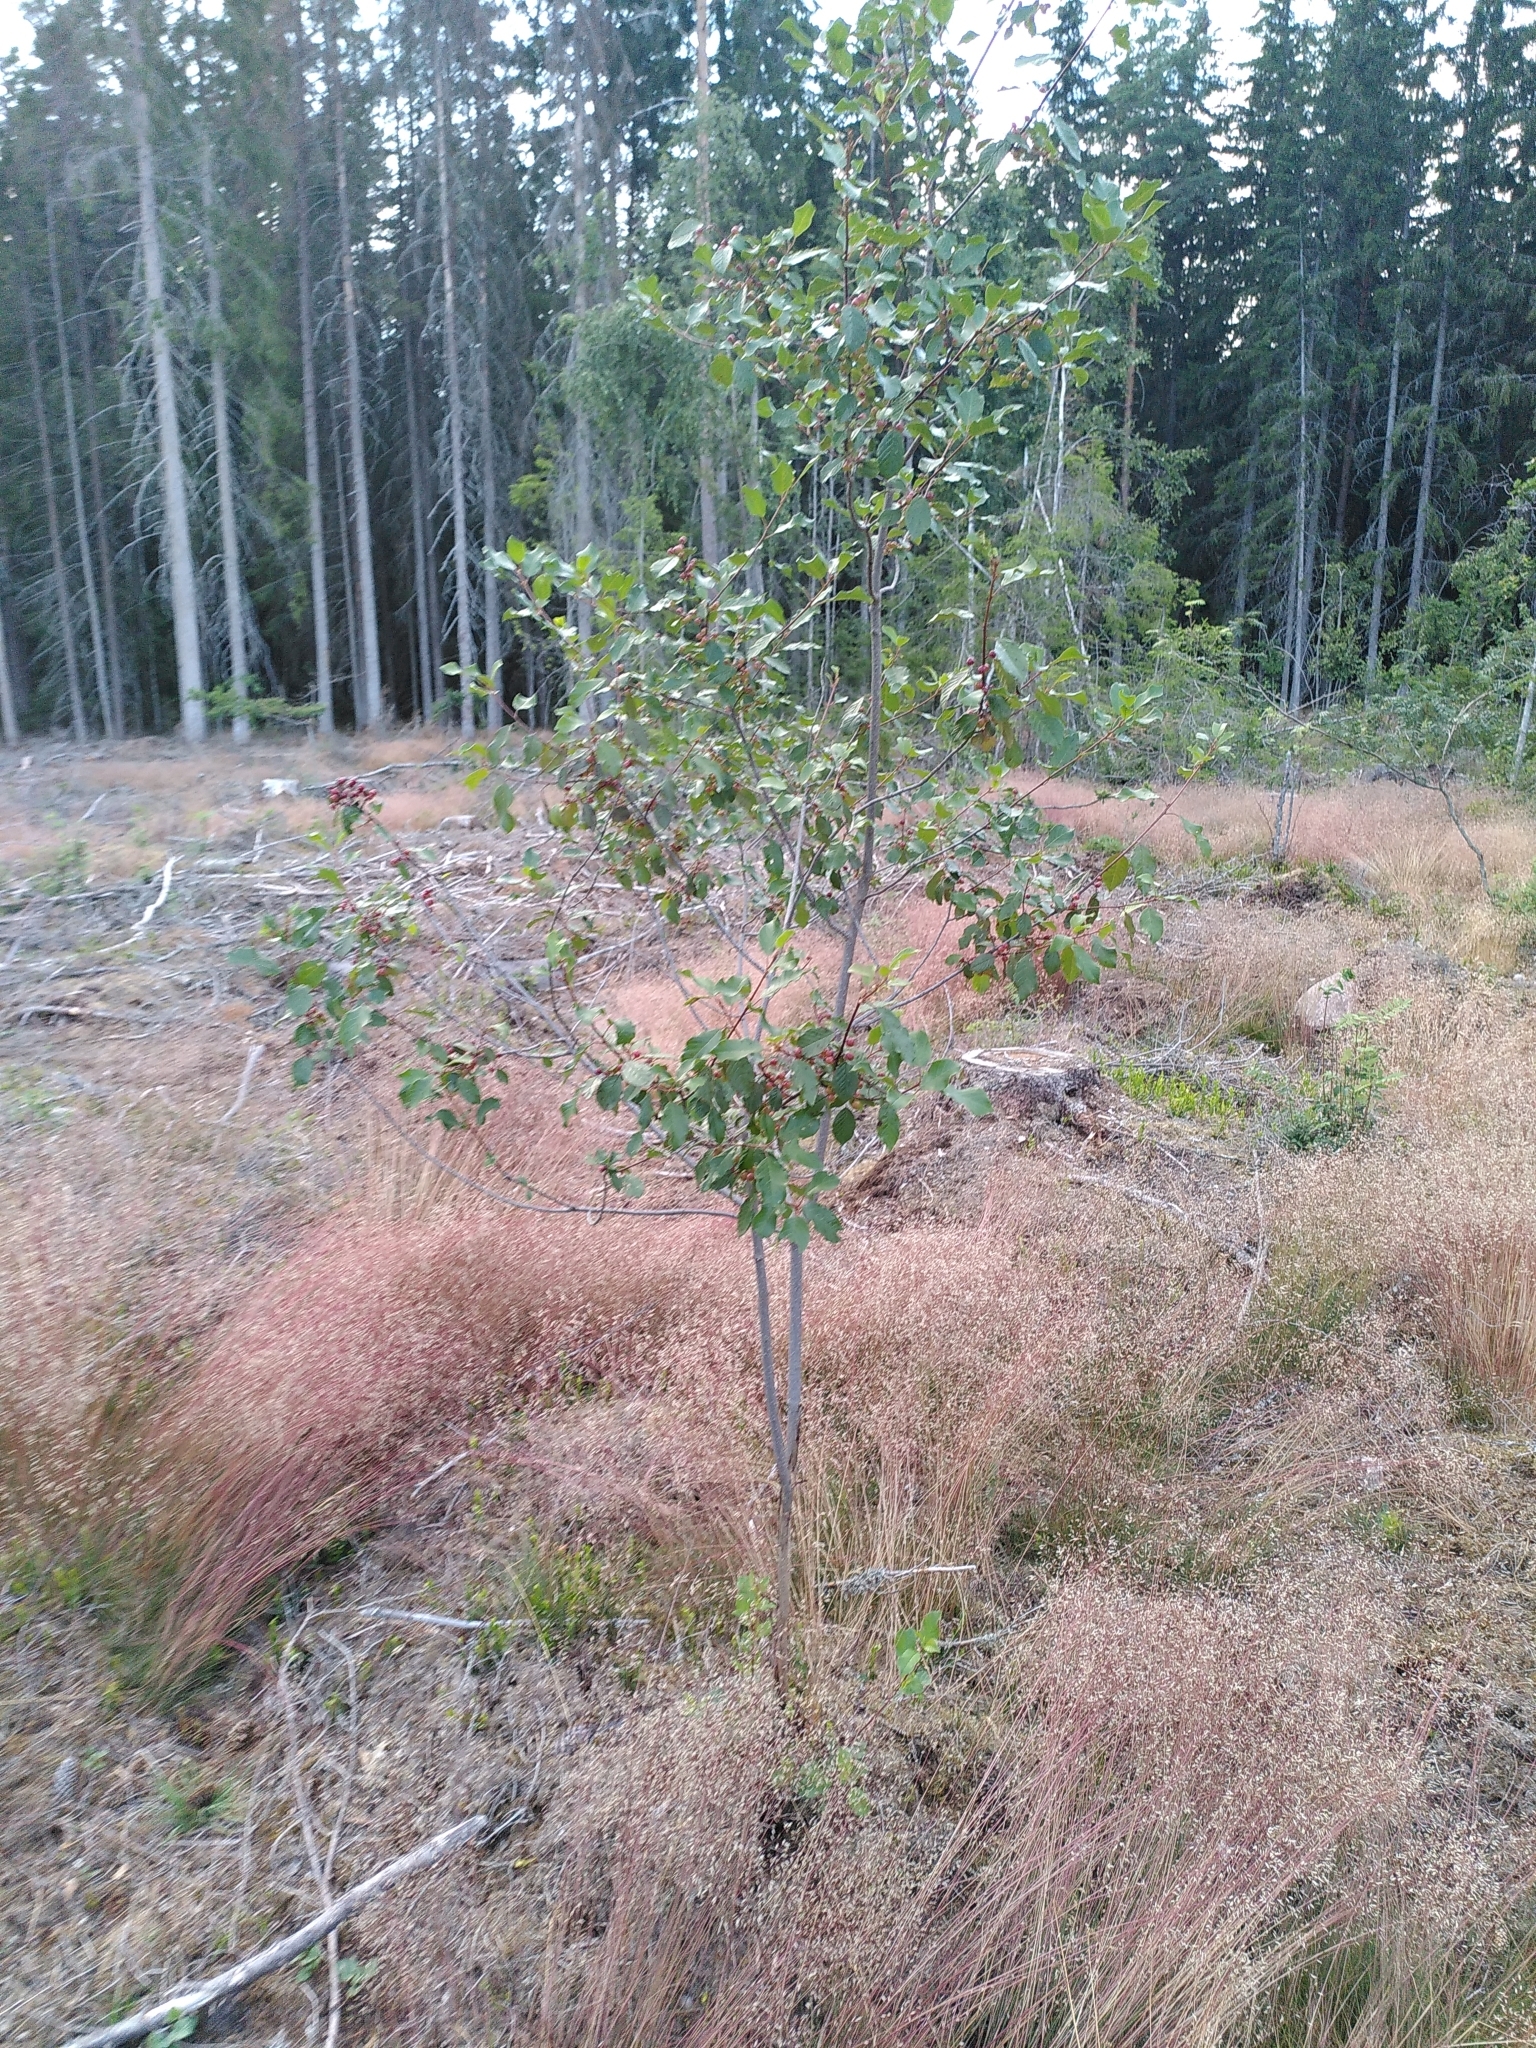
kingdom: Plantae
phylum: Tracheophyta
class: Magnoliopsida
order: Rosales
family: Rhamnaceae
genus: Frangula
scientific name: Frangula alnus
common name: Alder buckthorn
